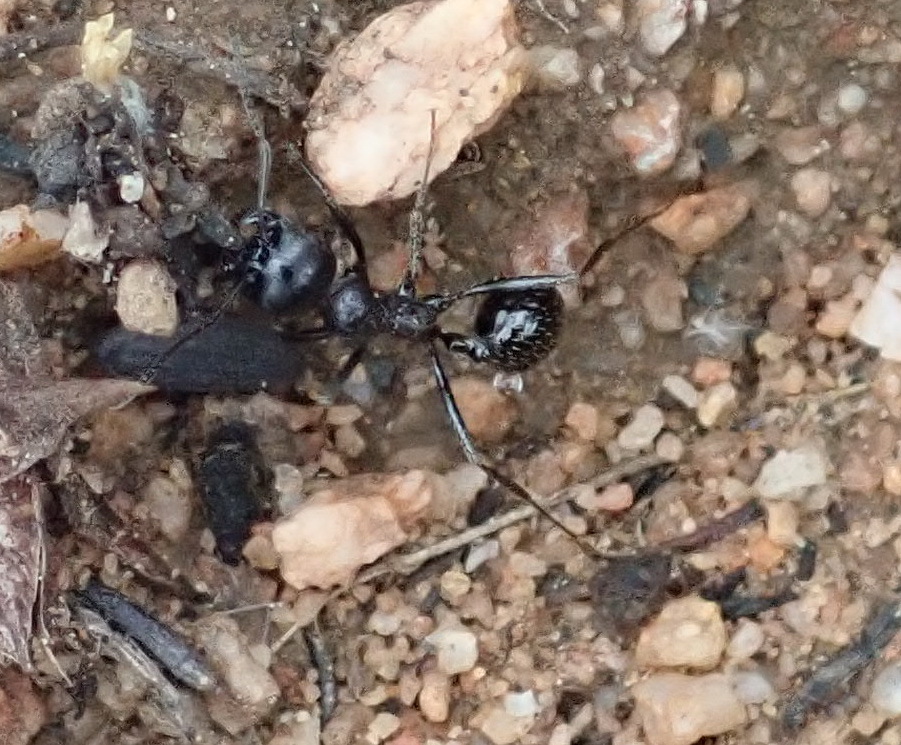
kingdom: Animalia
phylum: Arthropoda
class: Insecta
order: Hymenoptera
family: Formicidae
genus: Messor
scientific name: Messor capensis
